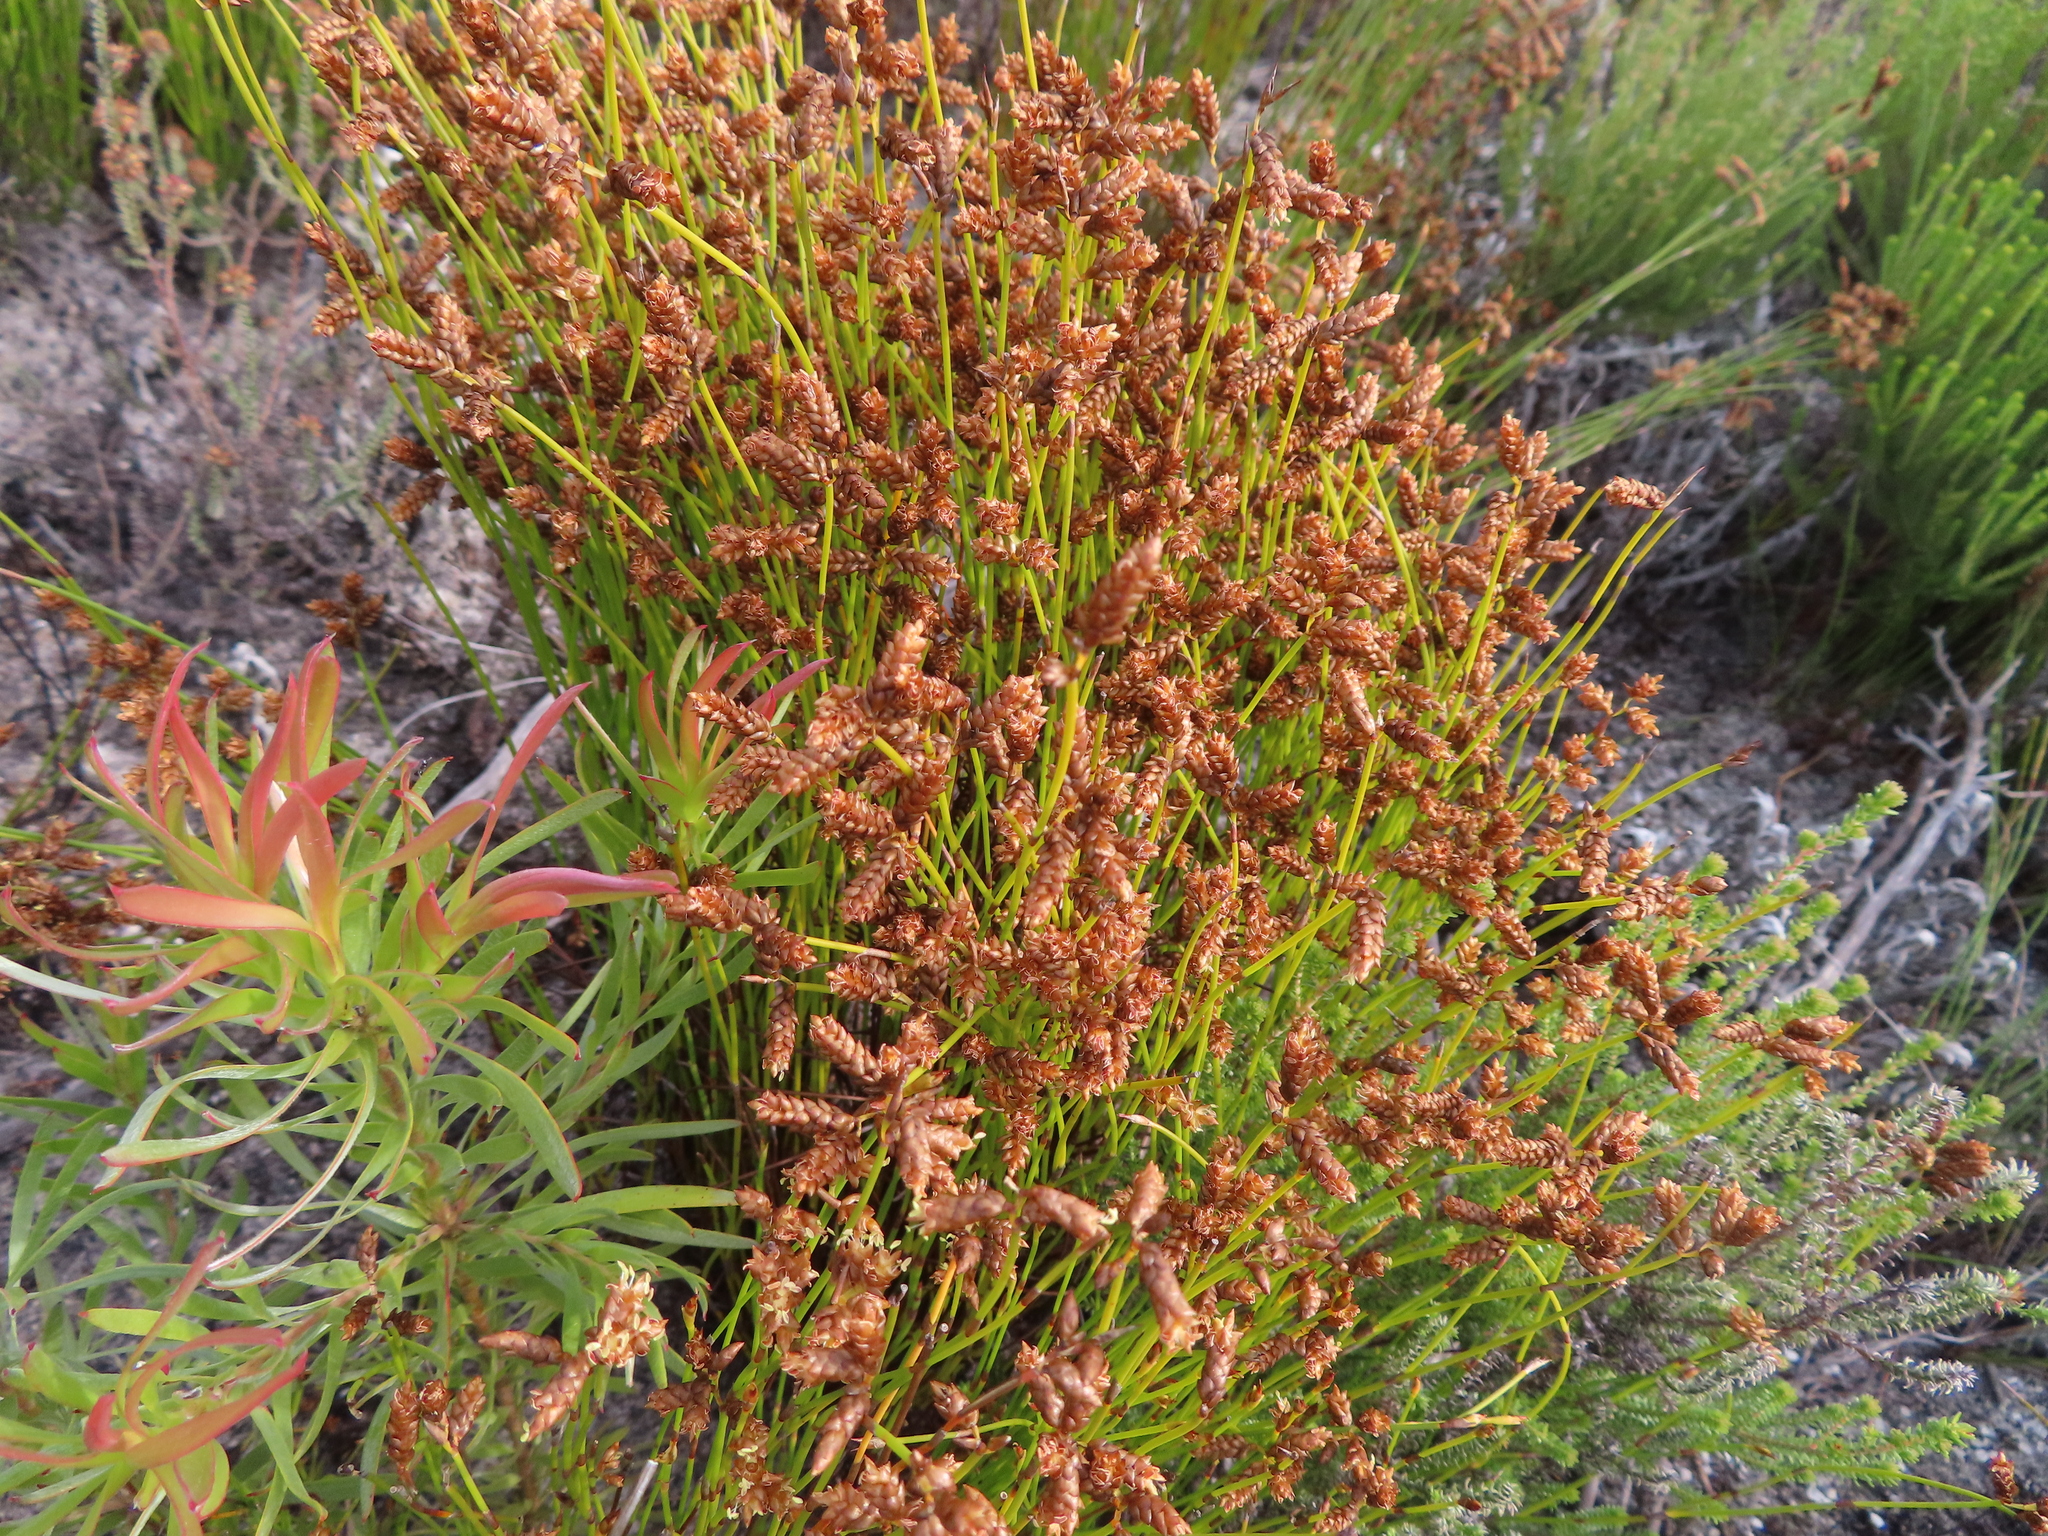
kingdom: Plantae
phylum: Tracheophyta
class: Liliopsida
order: Poales
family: Restionaceae
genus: Mastersiella
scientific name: Mastersiella digitata
